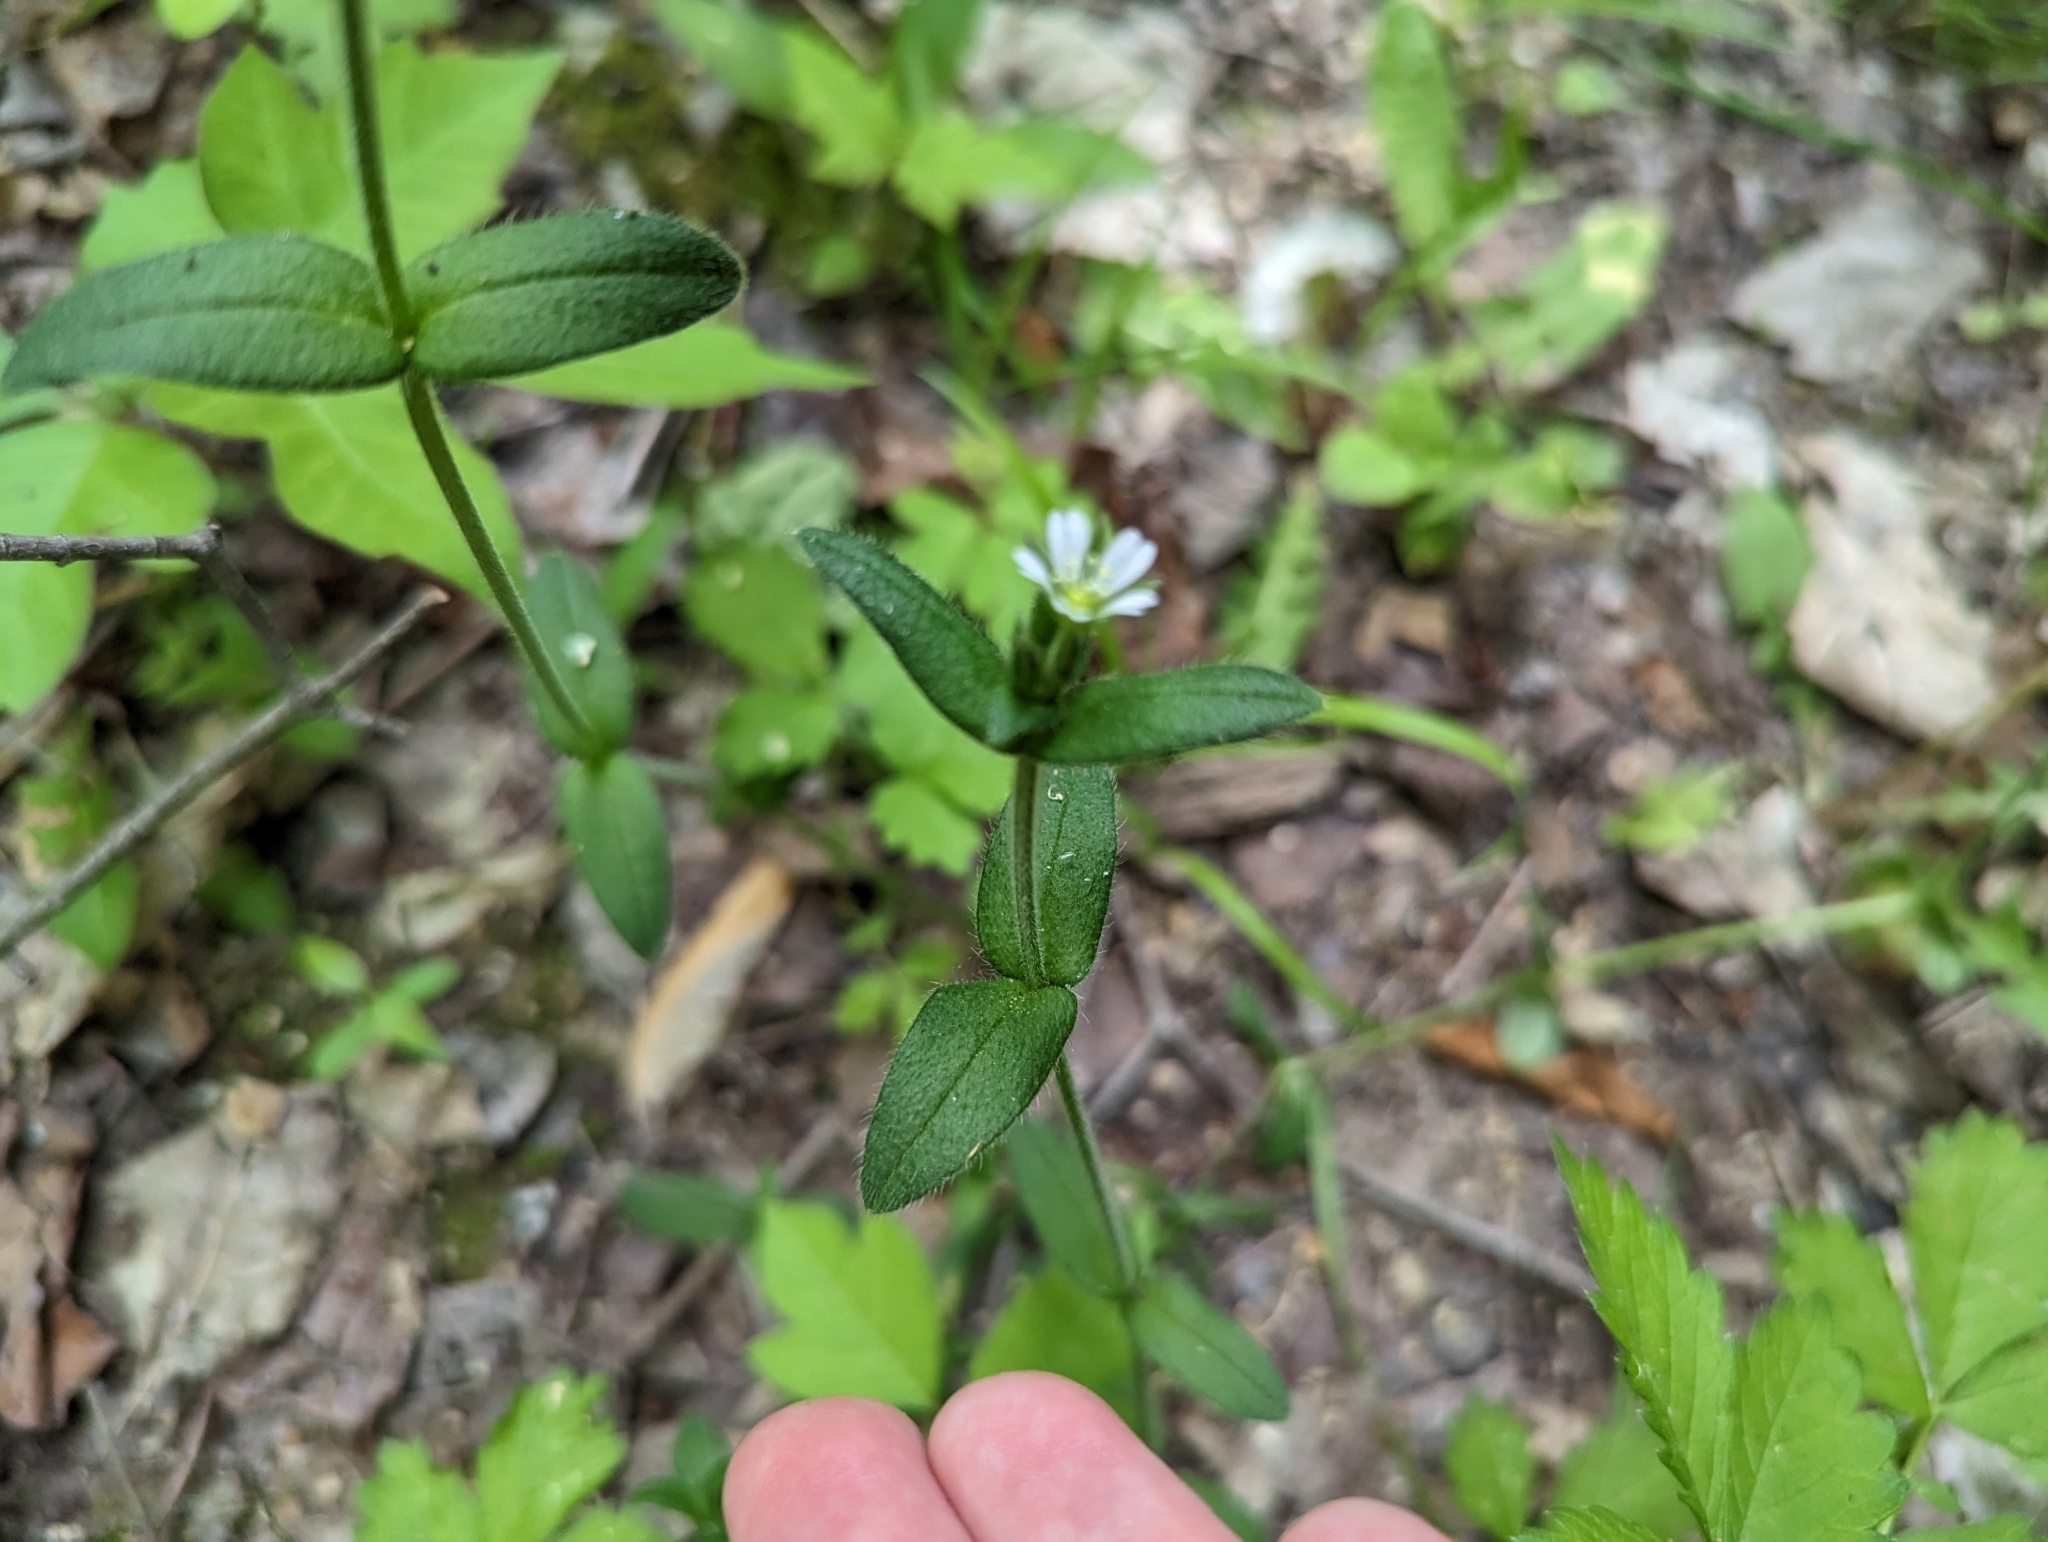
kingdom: Plantae
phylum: Tracheophyta
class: Magnoliopsida
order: Caryophyllales
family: Caryophyllaceae
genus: Cerastium
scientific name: Cerastium fontanum
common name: Common mouse-ear
